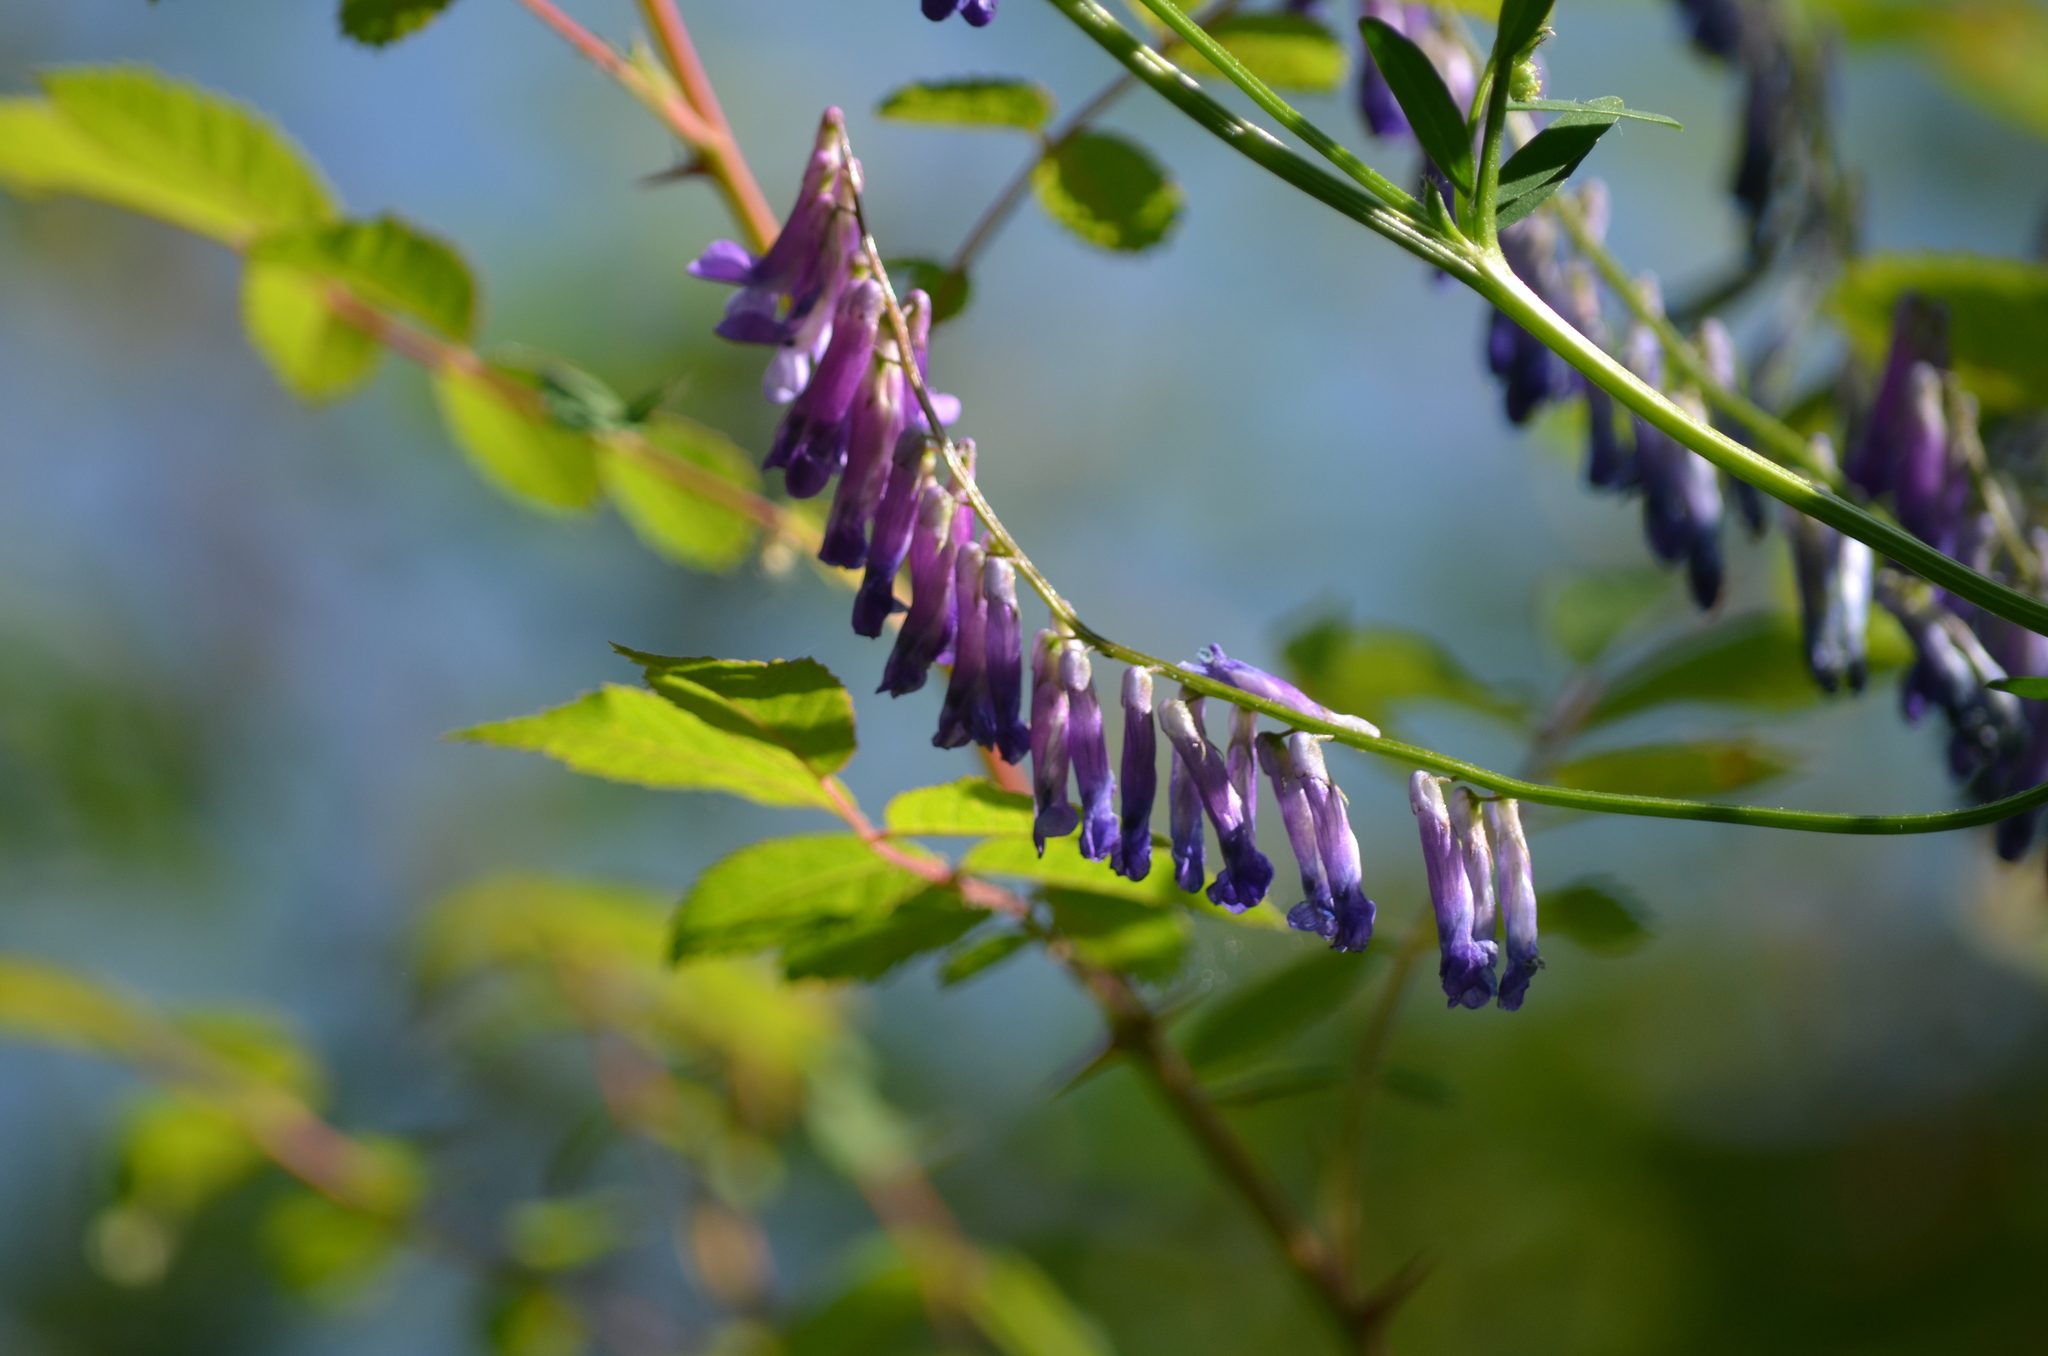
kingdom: Plantae
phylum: Tracheophyta
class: Magnoliopsida
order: Fabales
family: Fabaceae
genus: Vicia
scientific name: Vicia villosa
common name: Fodder vetch
